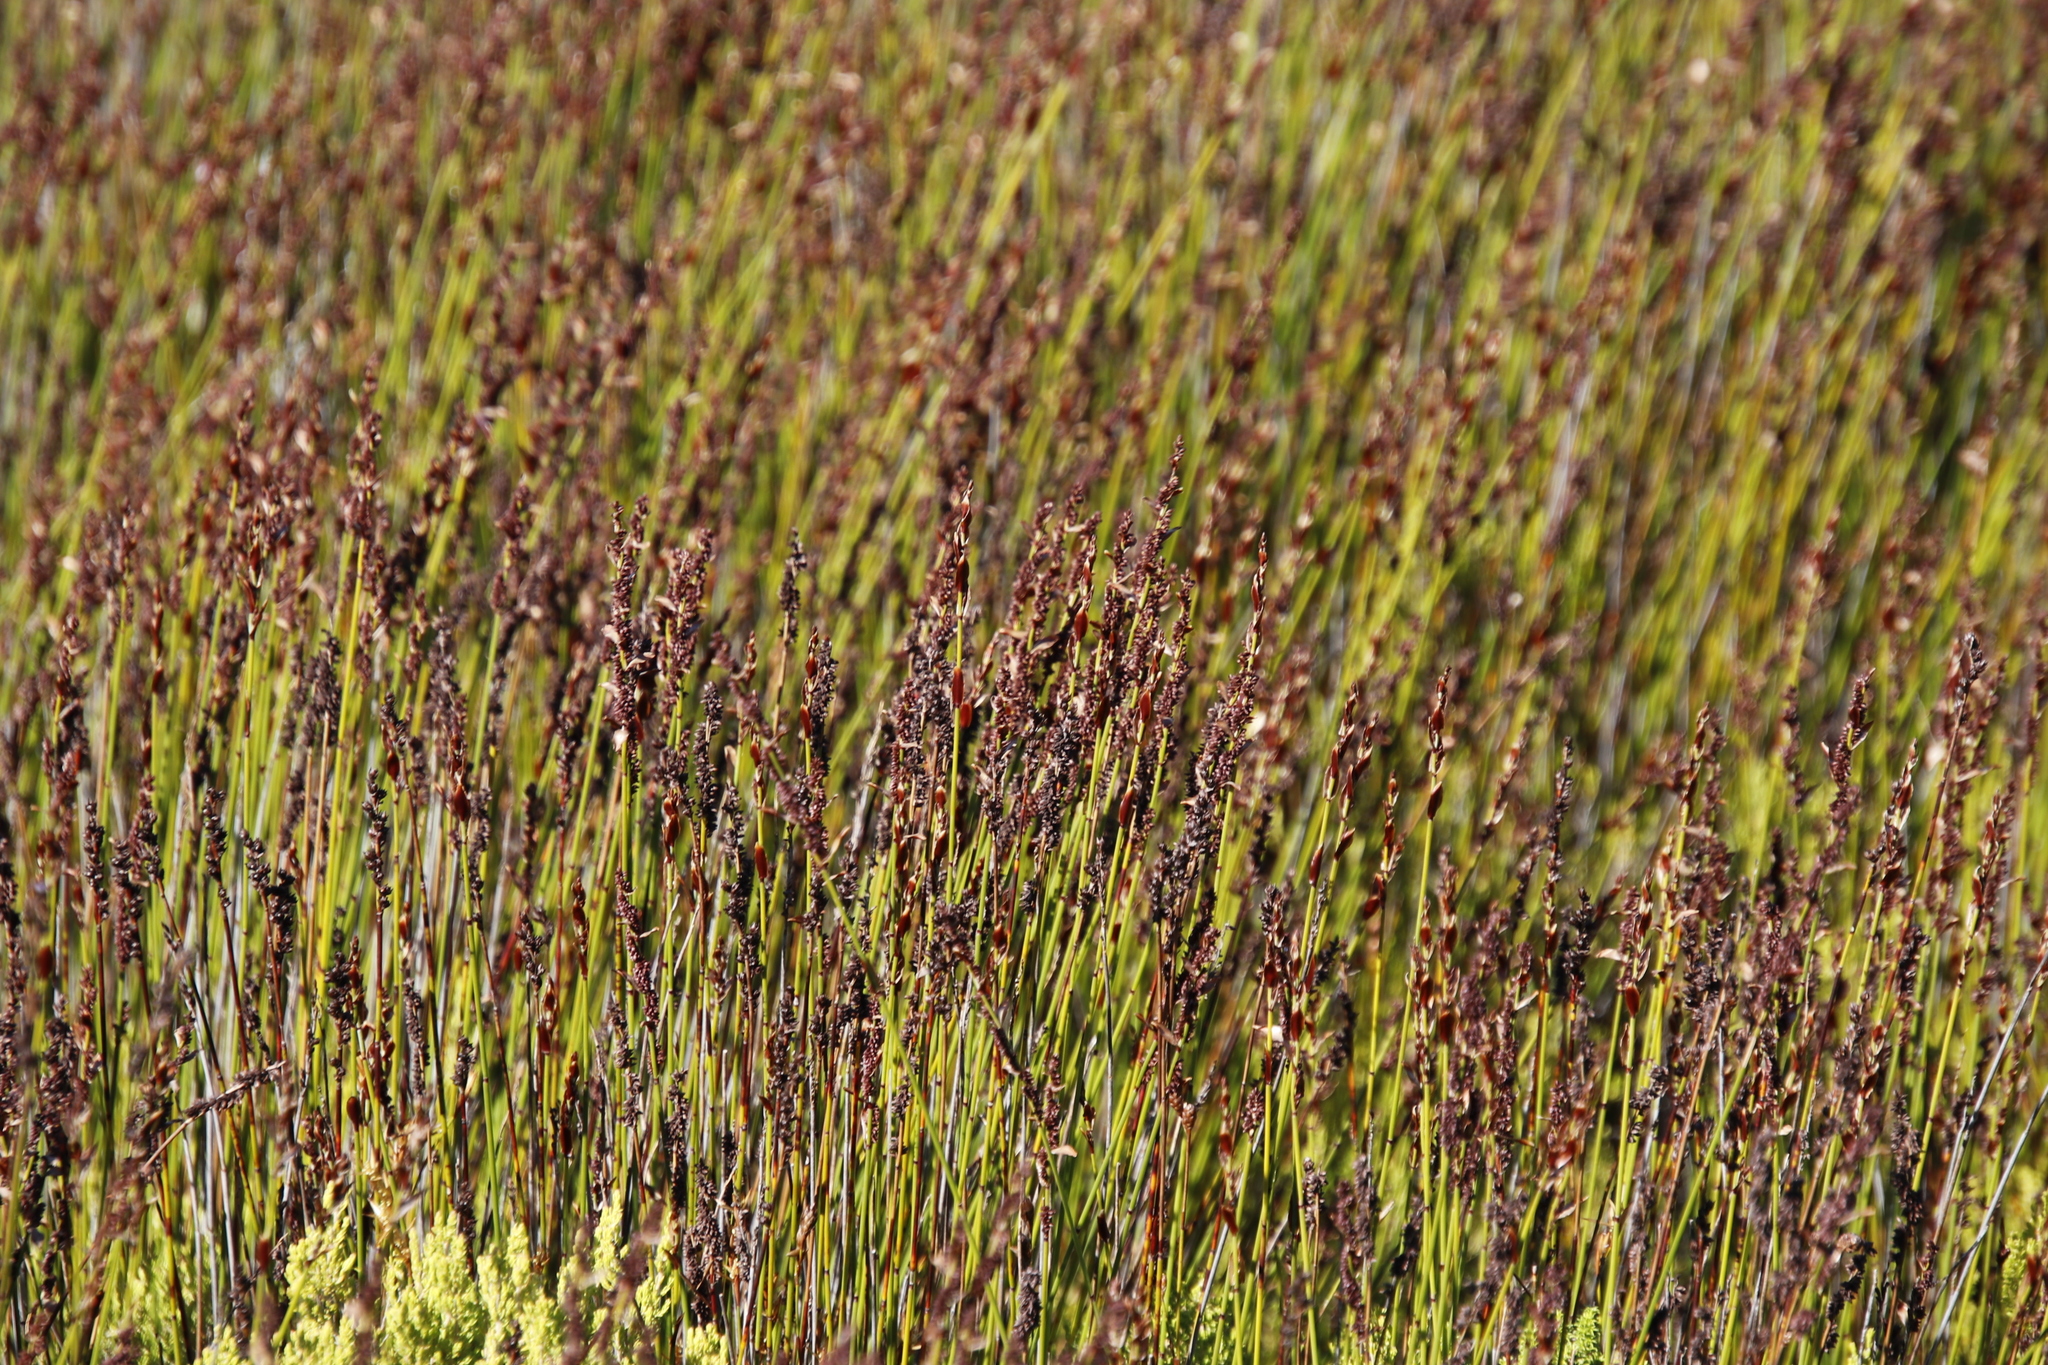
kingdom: Plantae
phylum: Tracheophyta
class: Liliopsida
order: Poales
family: Restionaceae
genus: Elegia
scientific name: Elegia ebracteata
